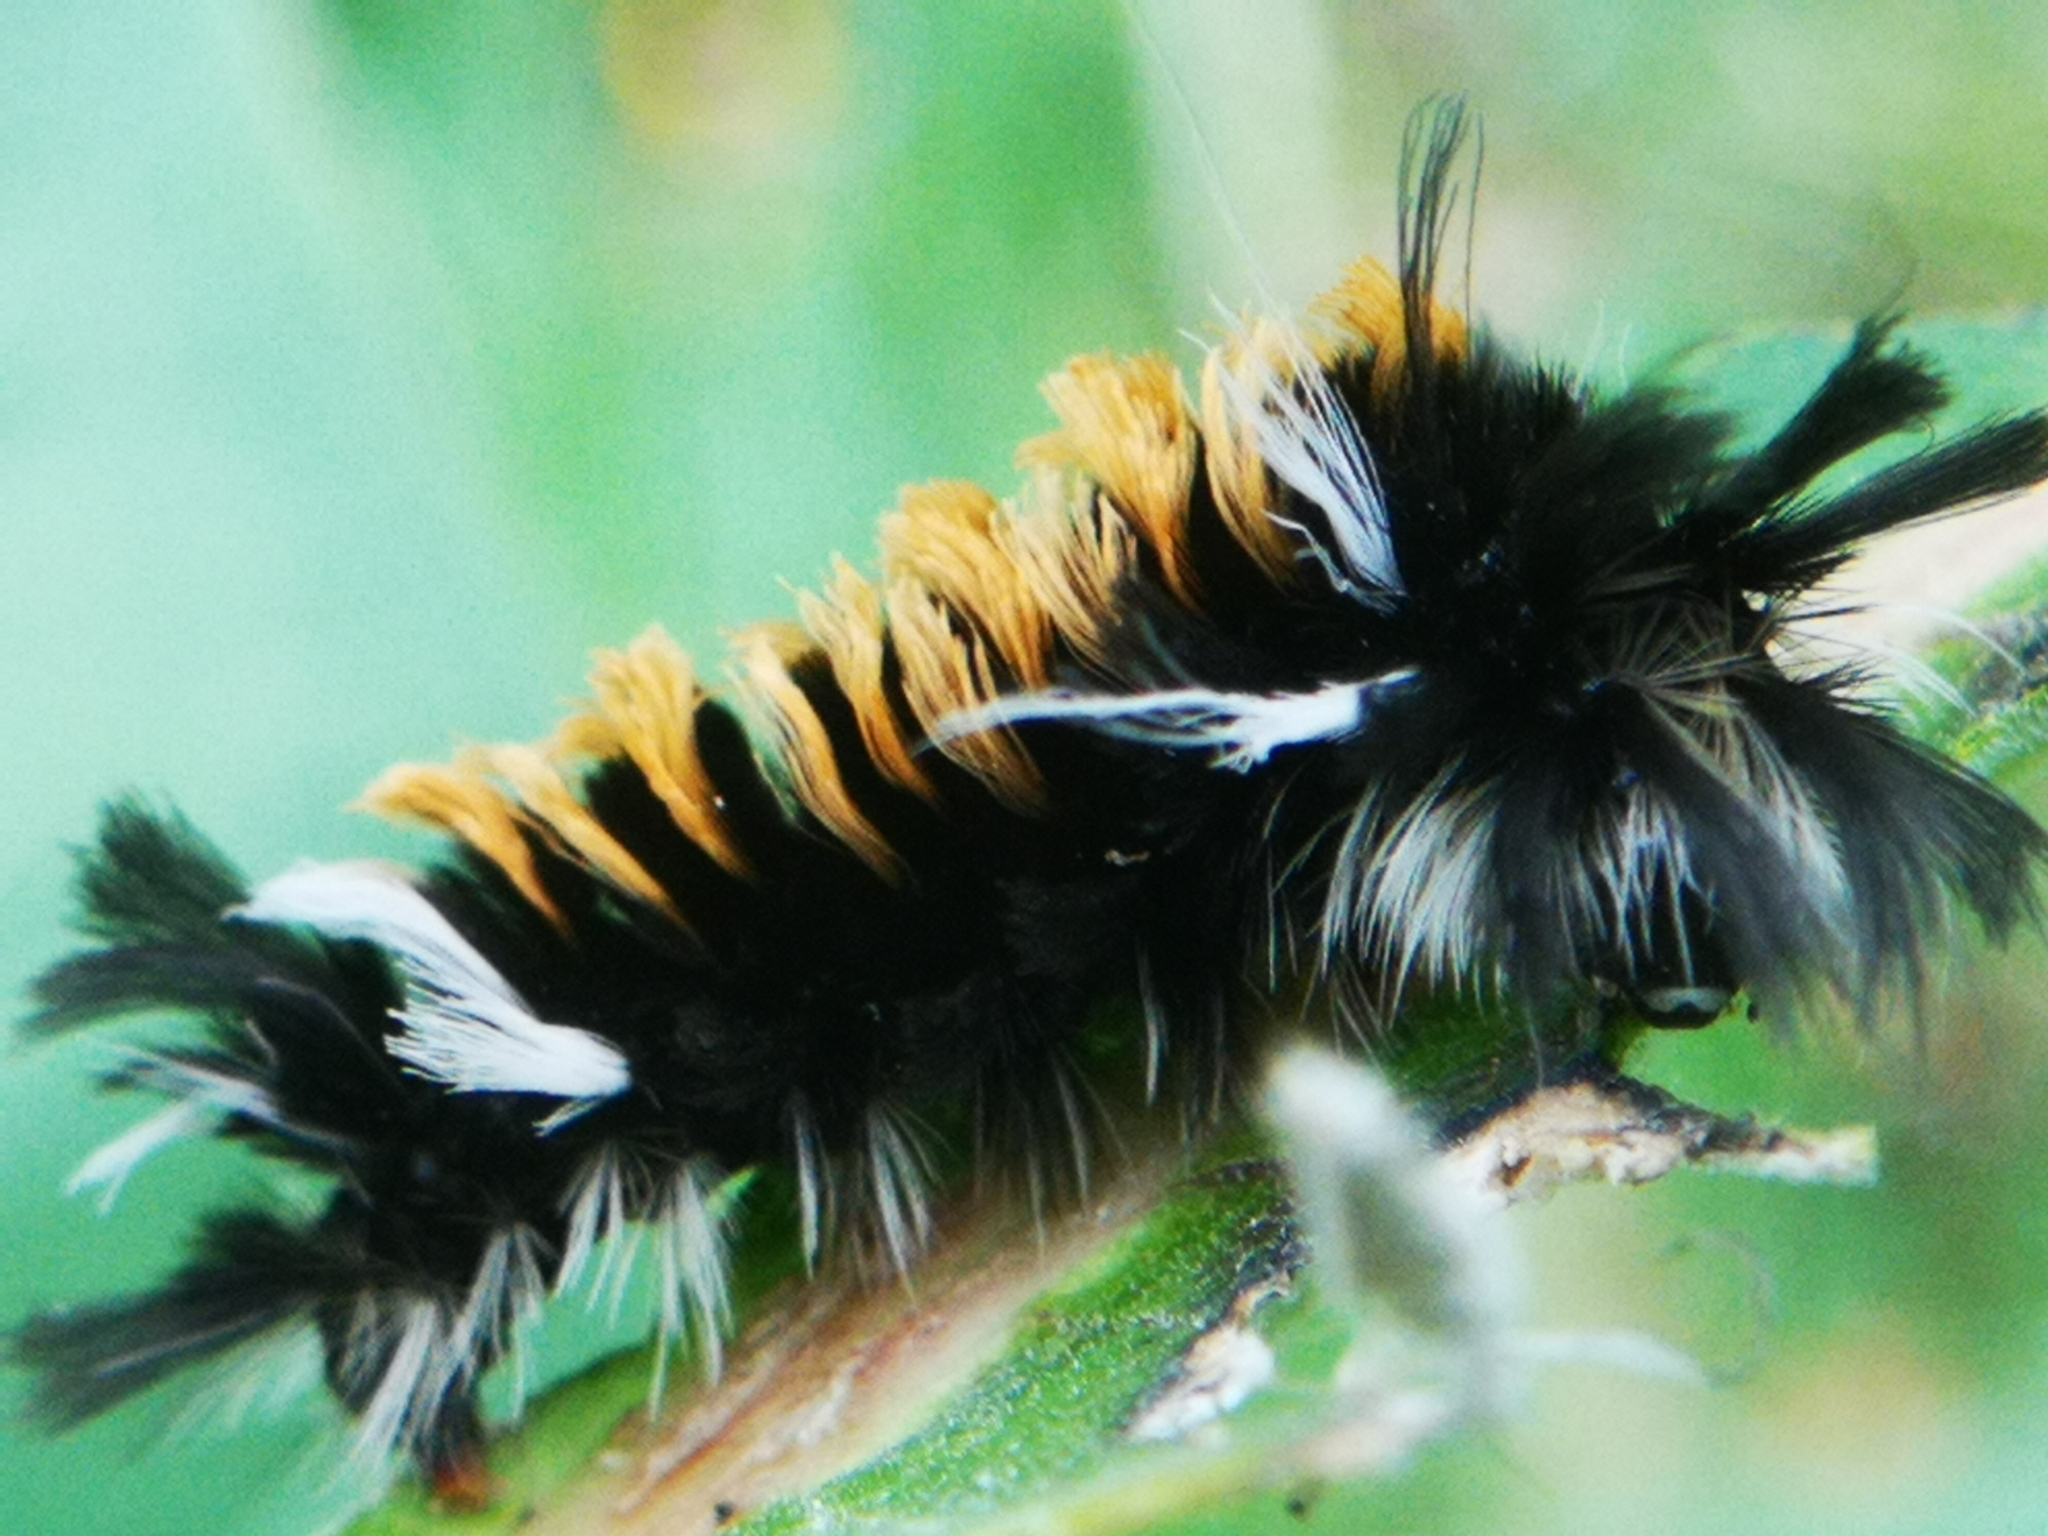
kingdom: Animalia
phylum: Arthropoda
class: Insecta
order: Lepidoptera
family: Erebidae
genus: Euchaetes
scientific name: Euchaetes egle
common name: Milkweed tussock moth
